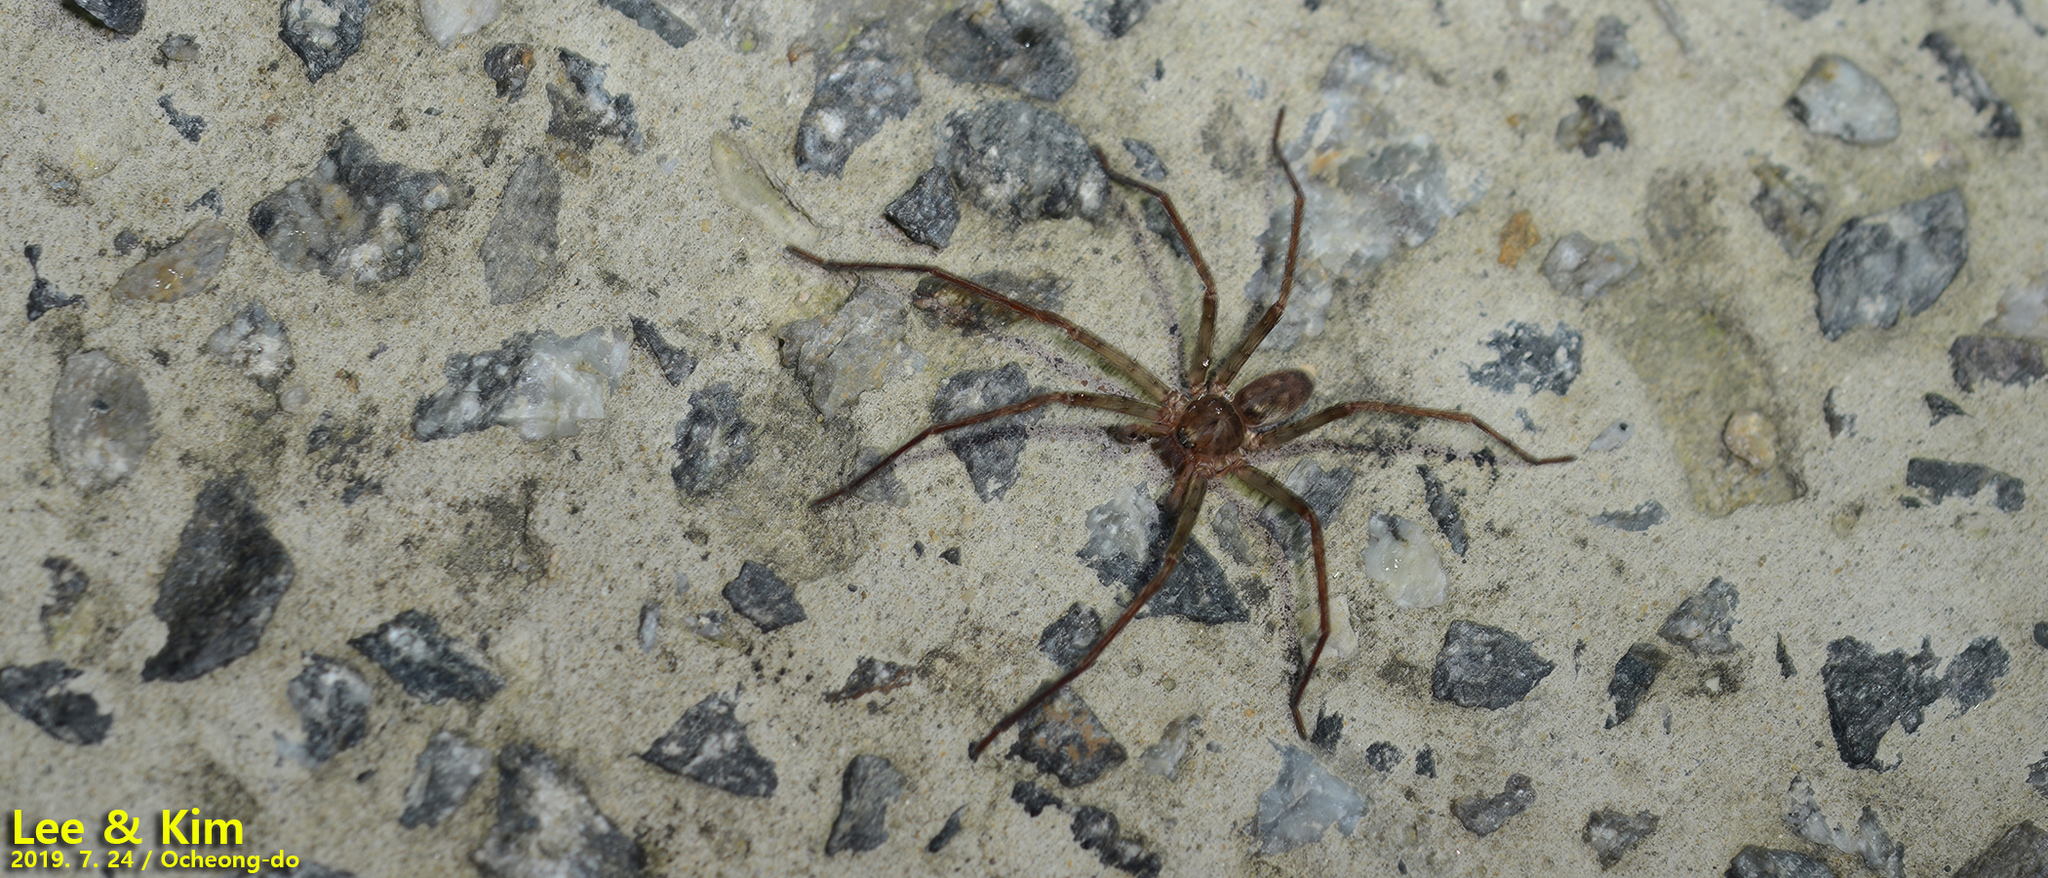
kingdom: Animalia
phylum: Arthropoda
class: Arachnida
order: Araneae
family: Sparassidae
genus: Sinopoda
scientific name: Sinopoda bigibba
